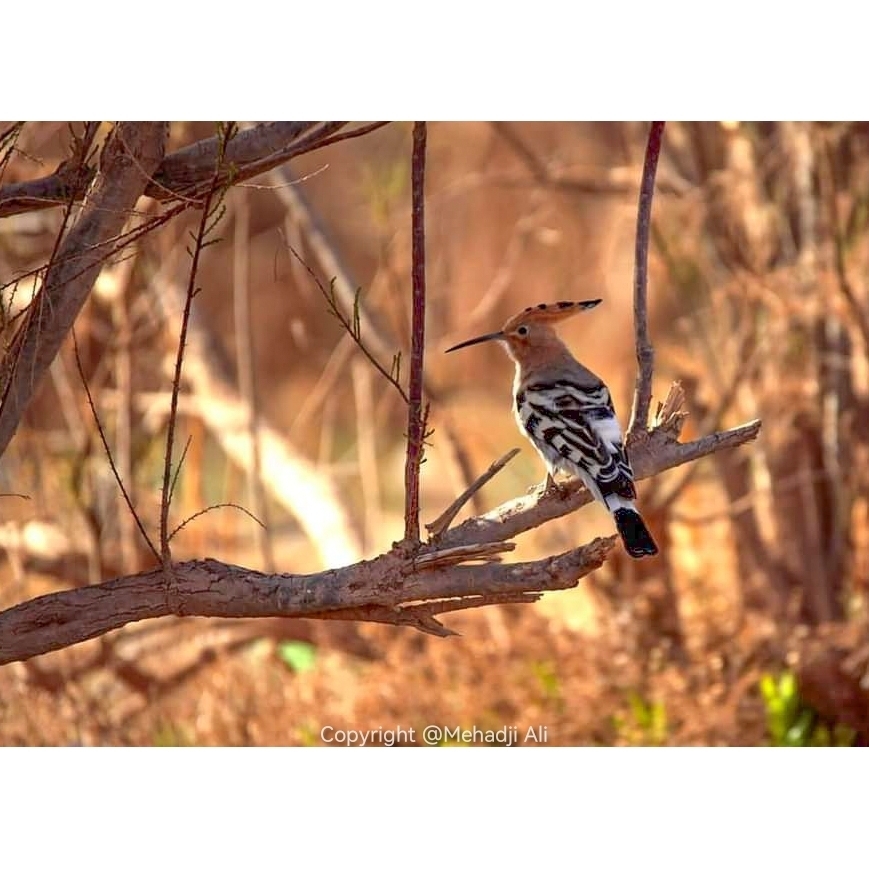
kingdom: Animalia
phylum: Chordata
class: Aves
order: Bucerotiformes
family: Upupidae
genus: Upupa
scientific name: Upupa epops
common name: Eurasian hoopoe
